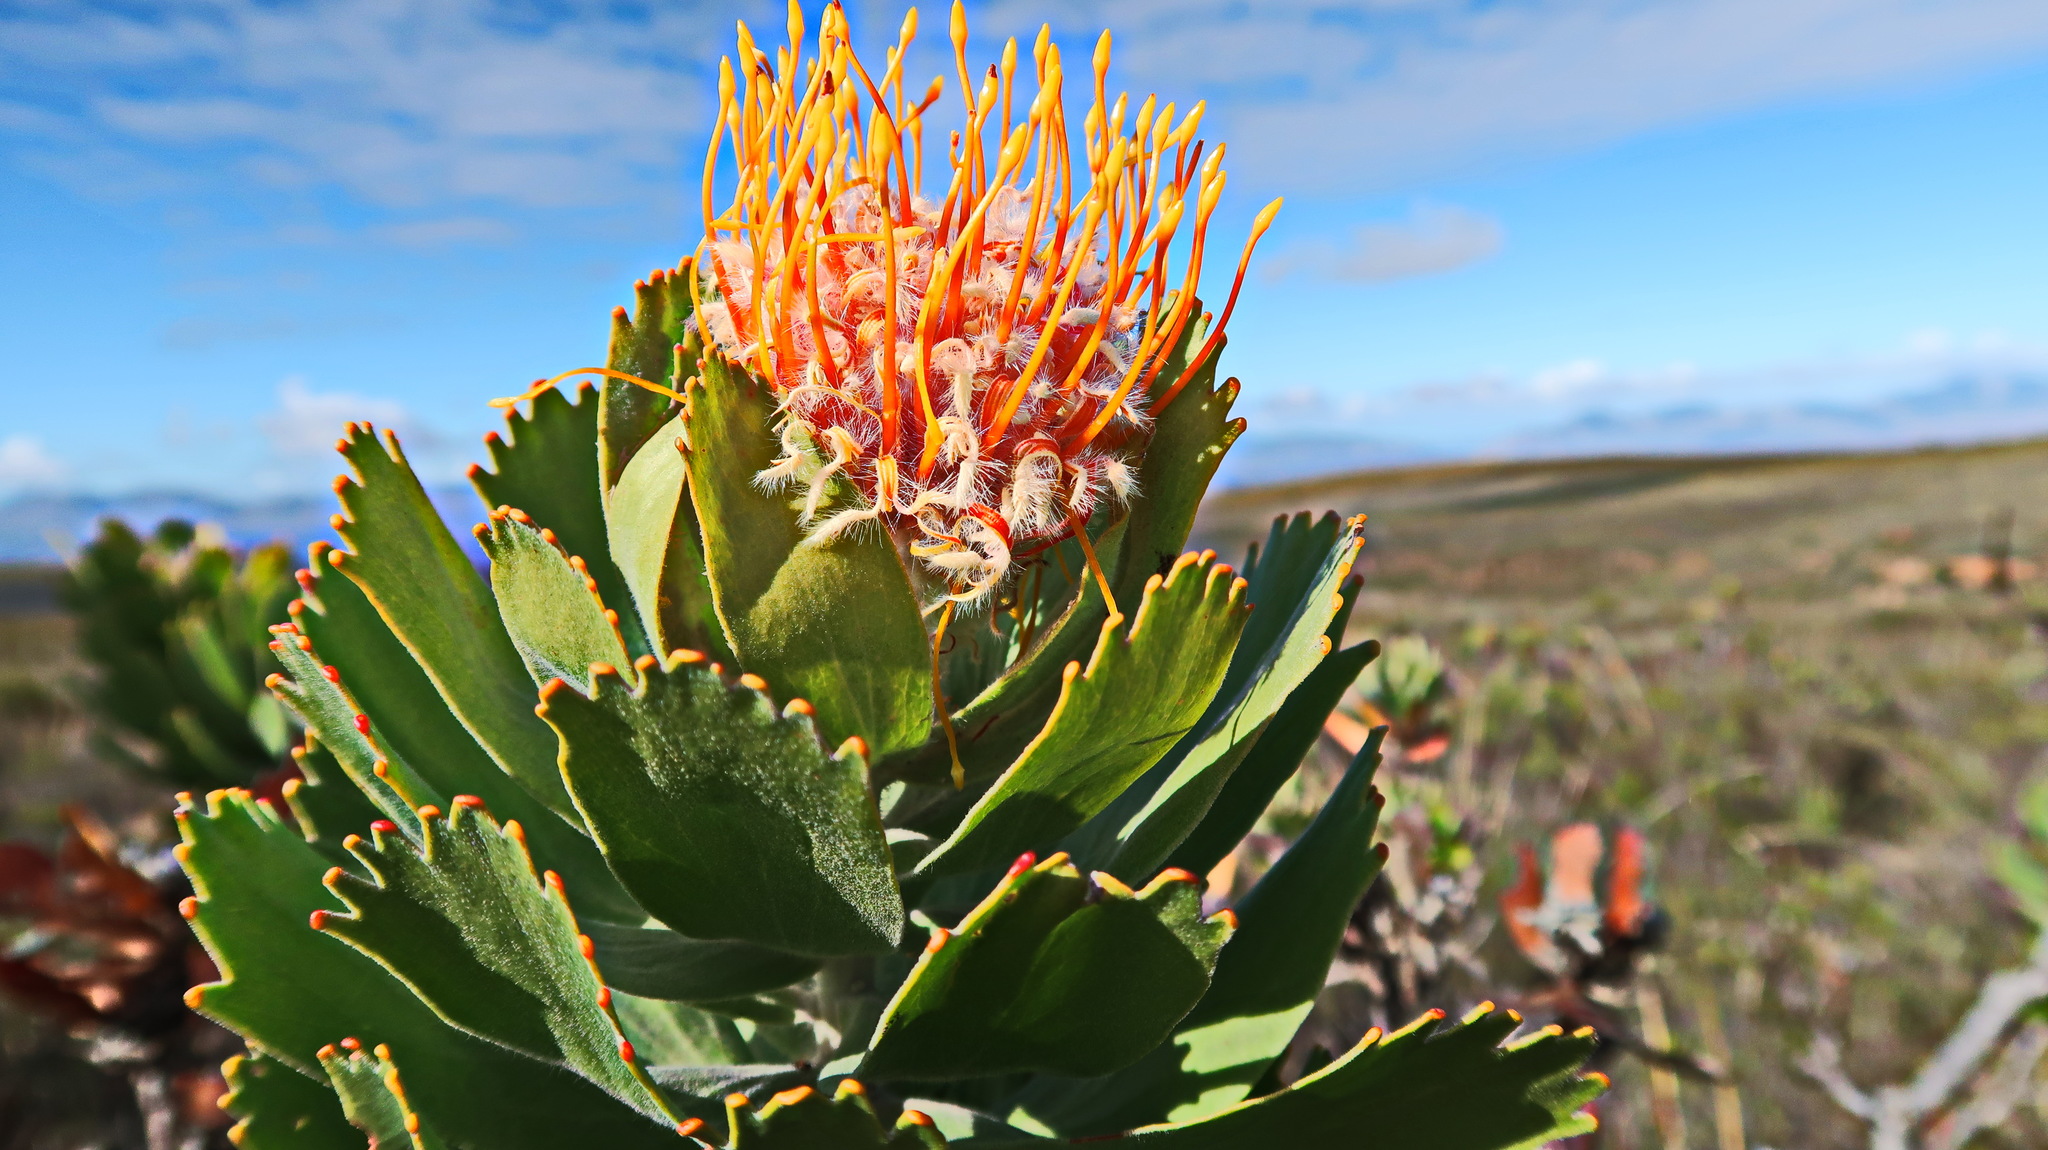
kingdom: Plantae
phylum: Tracheophyta
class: Magnoliopsida
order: Proteales
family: Proteaceae
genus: Leucospermum
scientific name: Leucospermum pluridens
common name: Robinson pincushion
